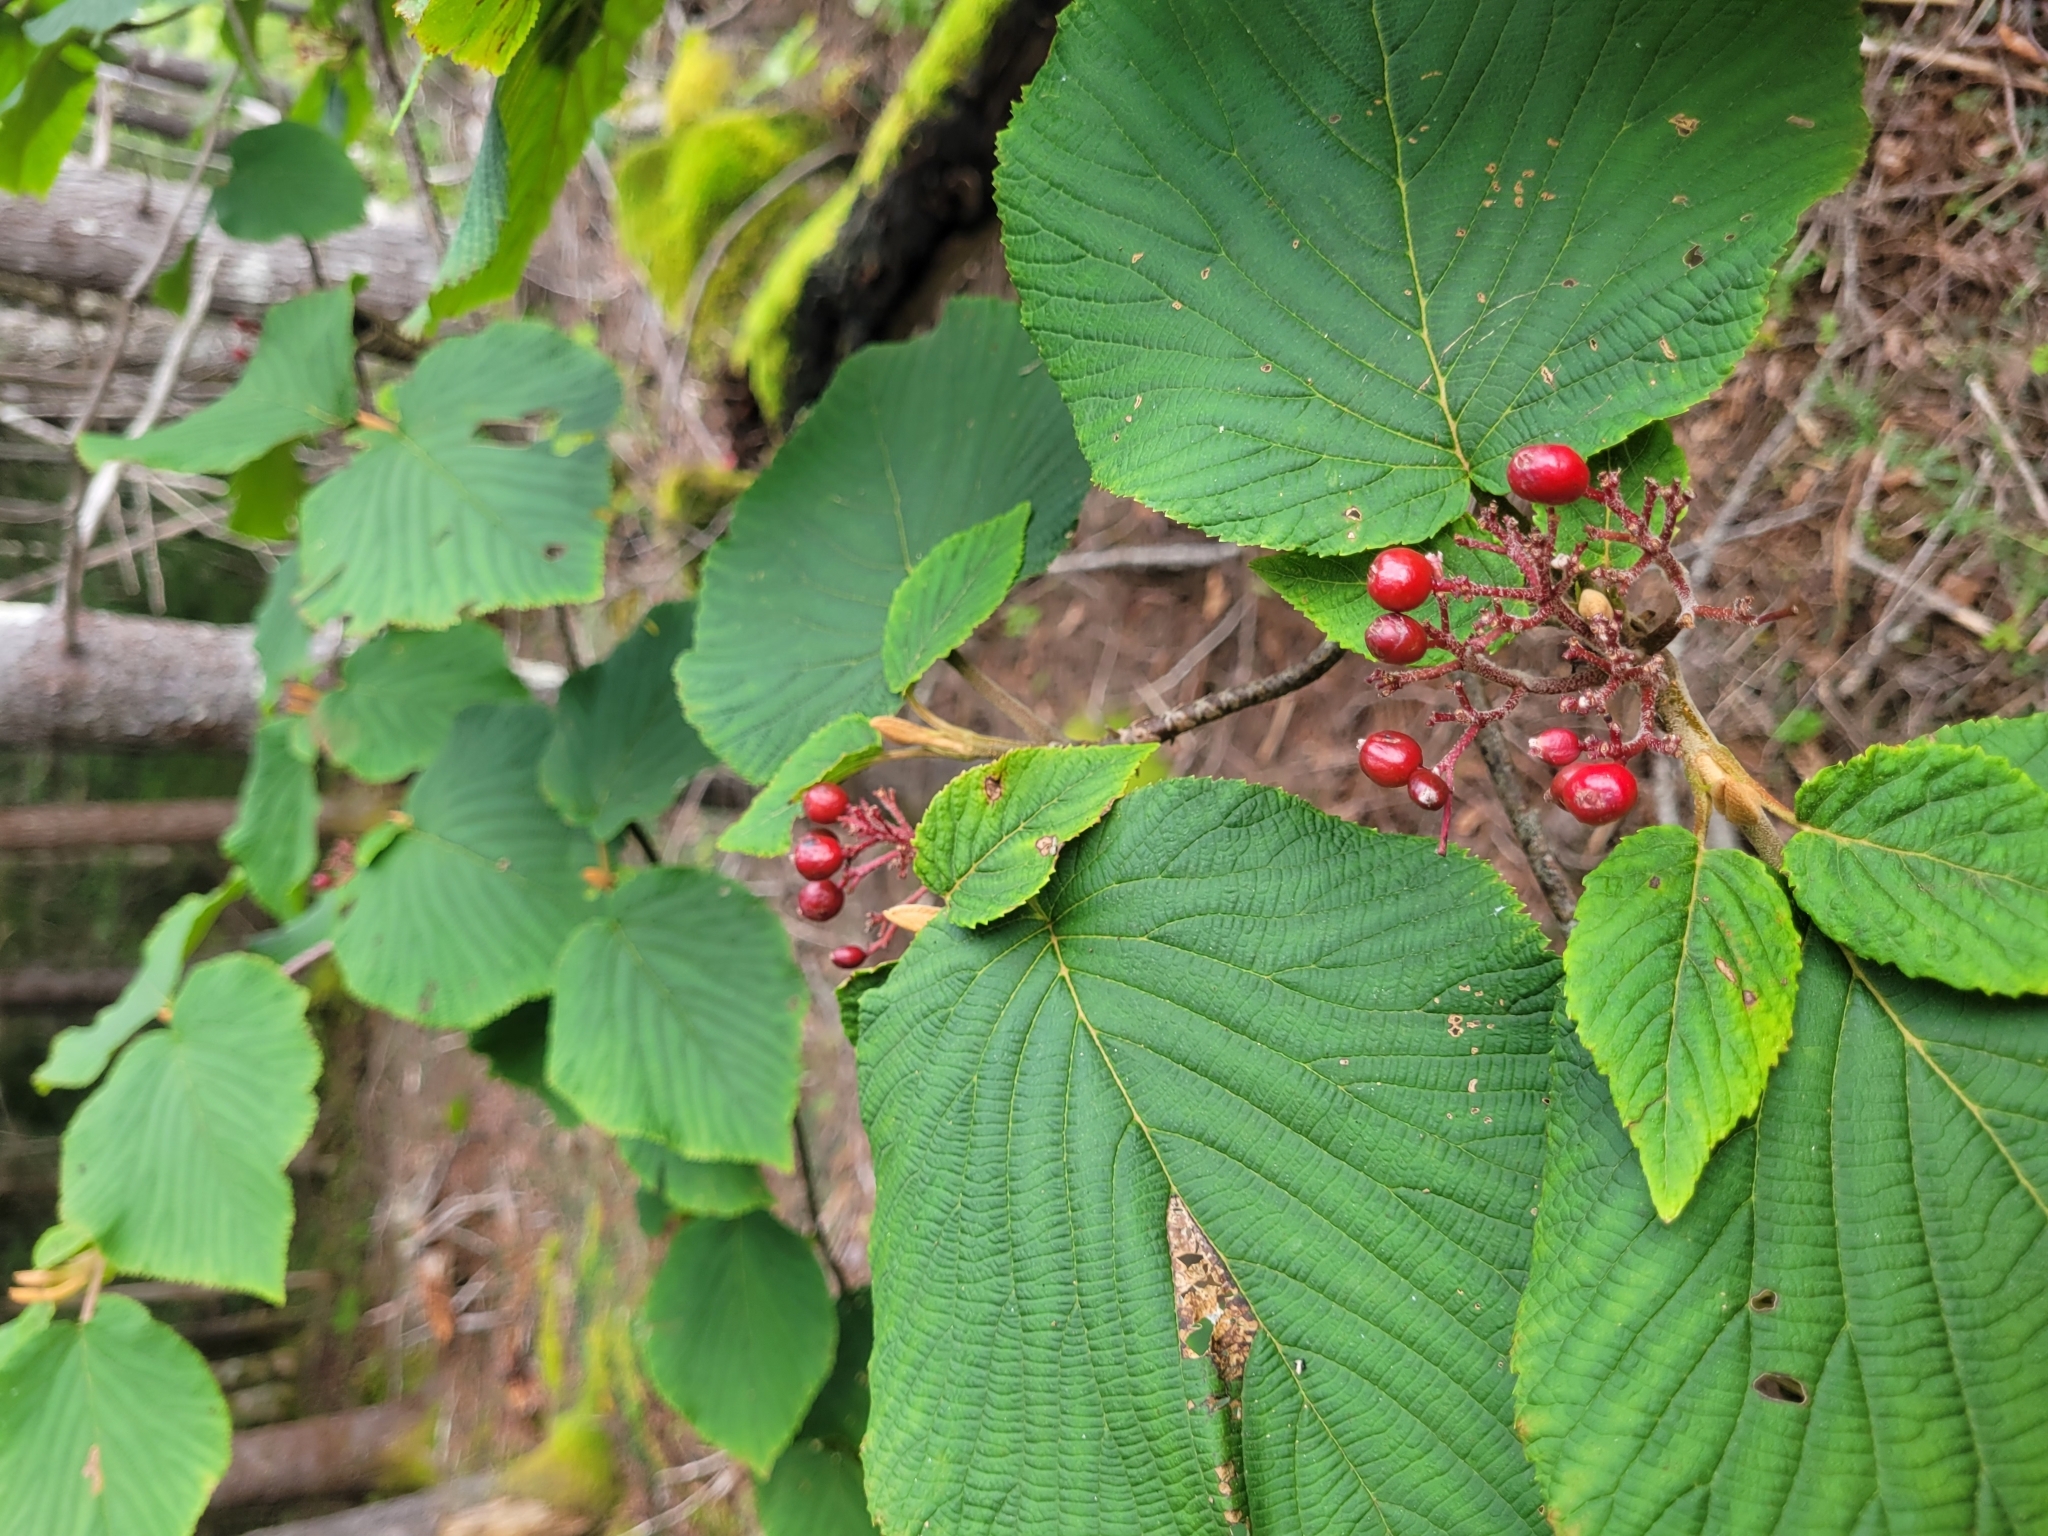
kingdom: Plantae
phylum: Tracheophyta
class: Magnoliopsida
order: Dipsacales
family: Viburnaceae
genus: Viburnum
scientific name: Viburnum lantanoides
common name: Hobblebush
